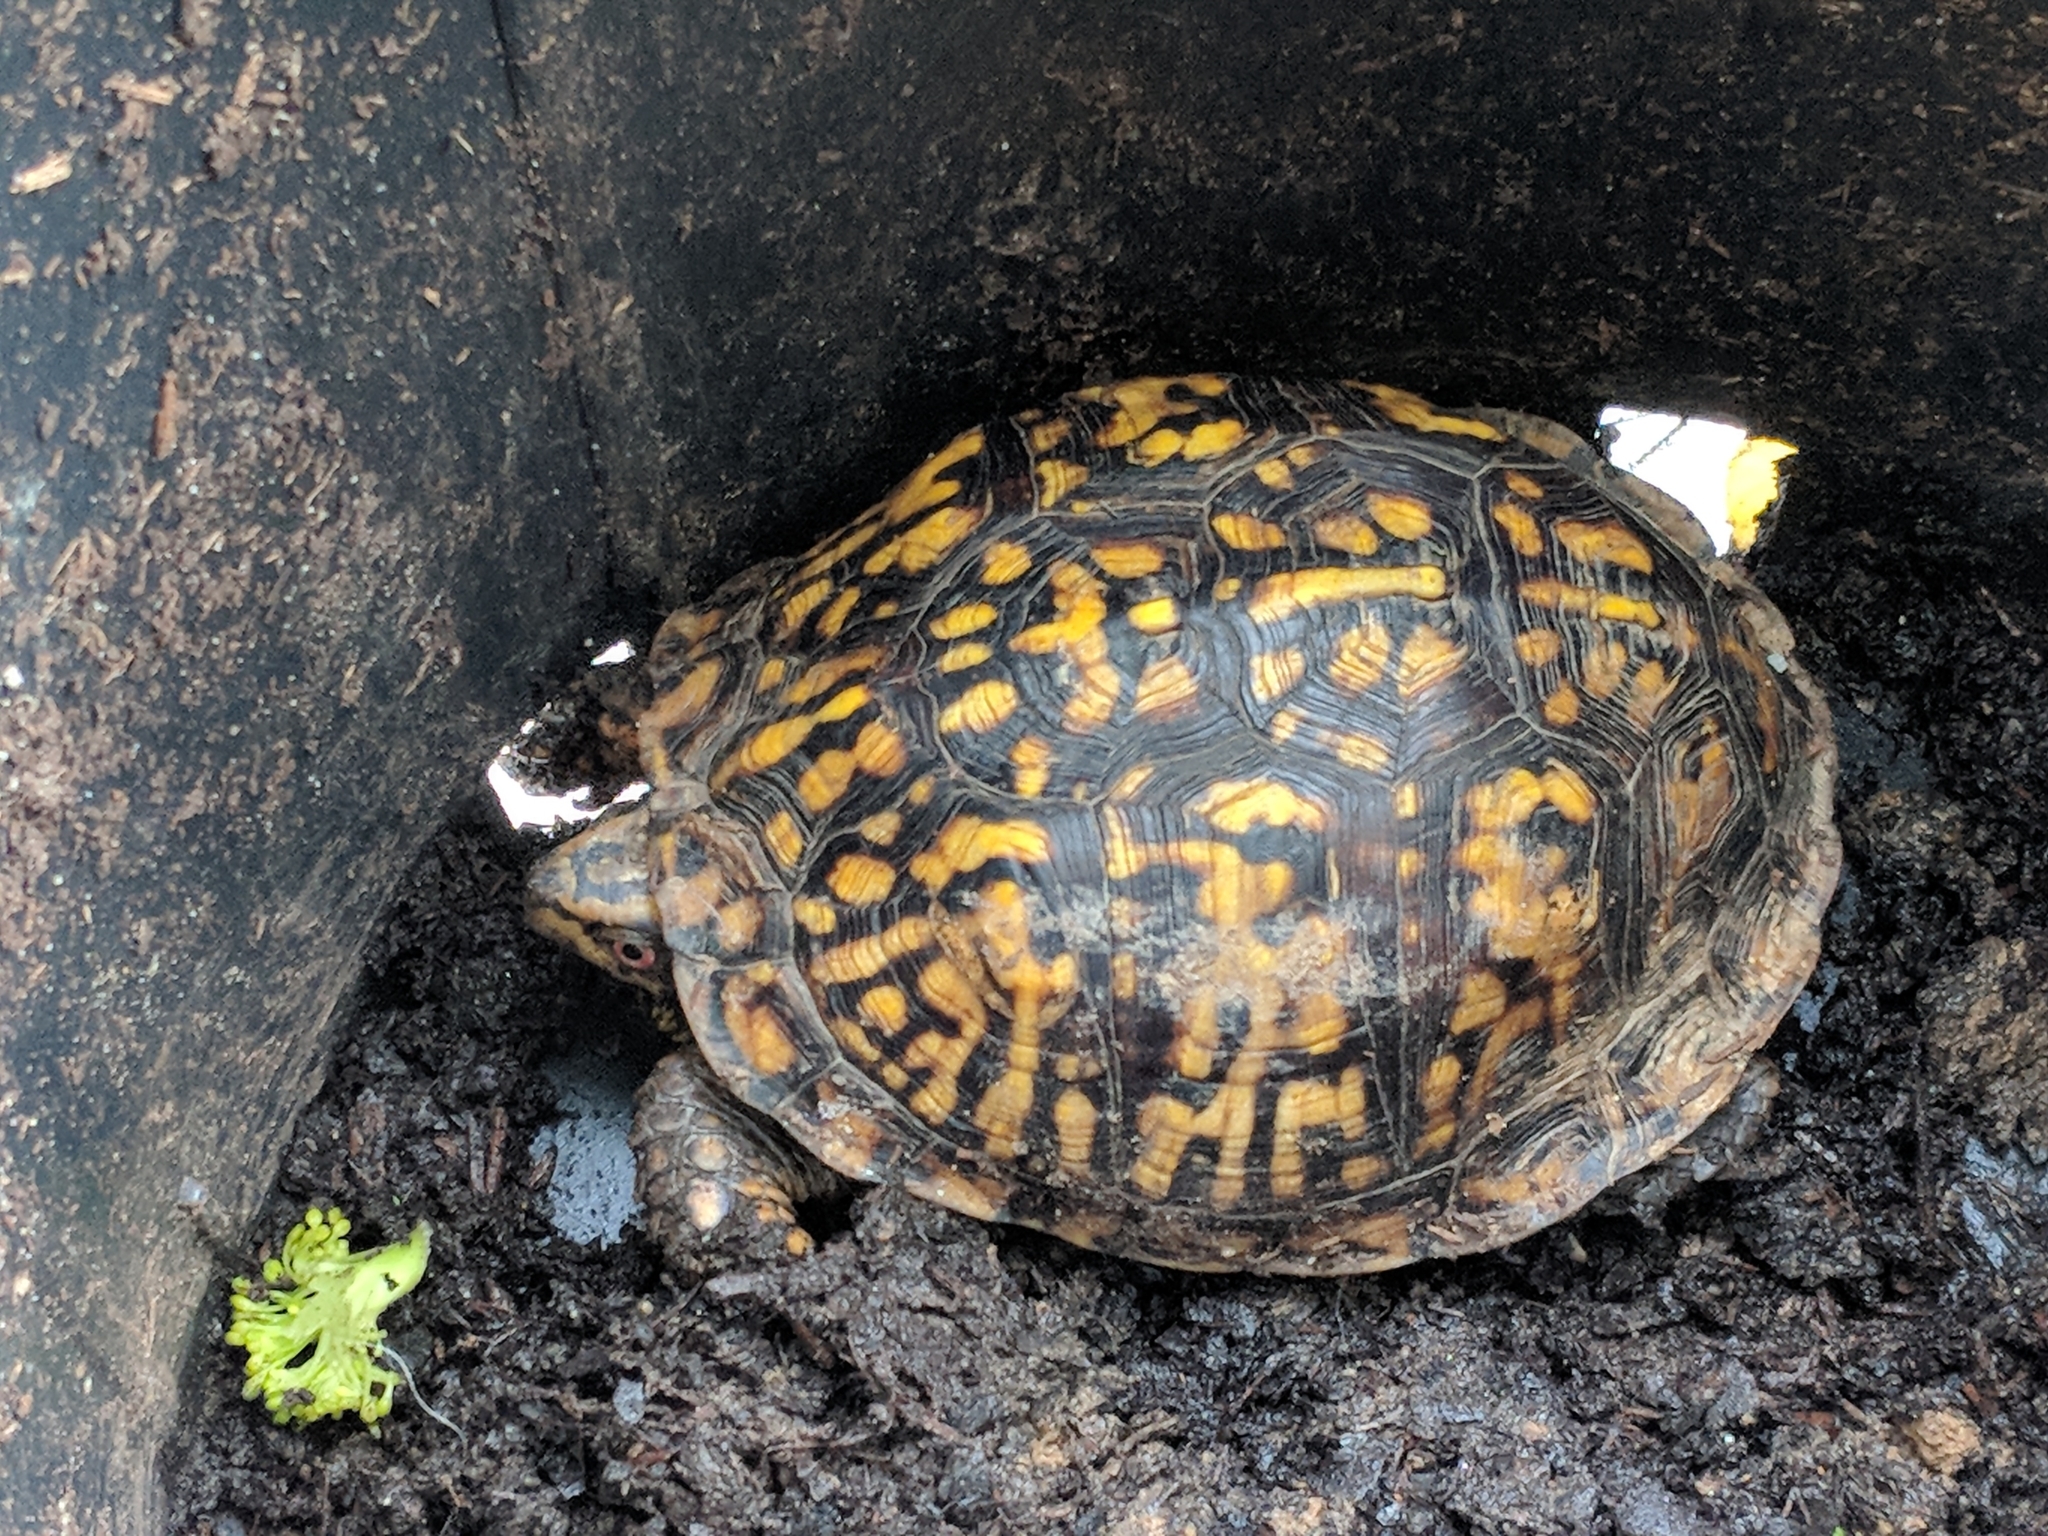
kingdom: Animalia
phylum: Chordata
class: Testudines
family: Emydidae
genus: Terrapene
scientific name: Terrapene carolina
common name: Common box turtle
